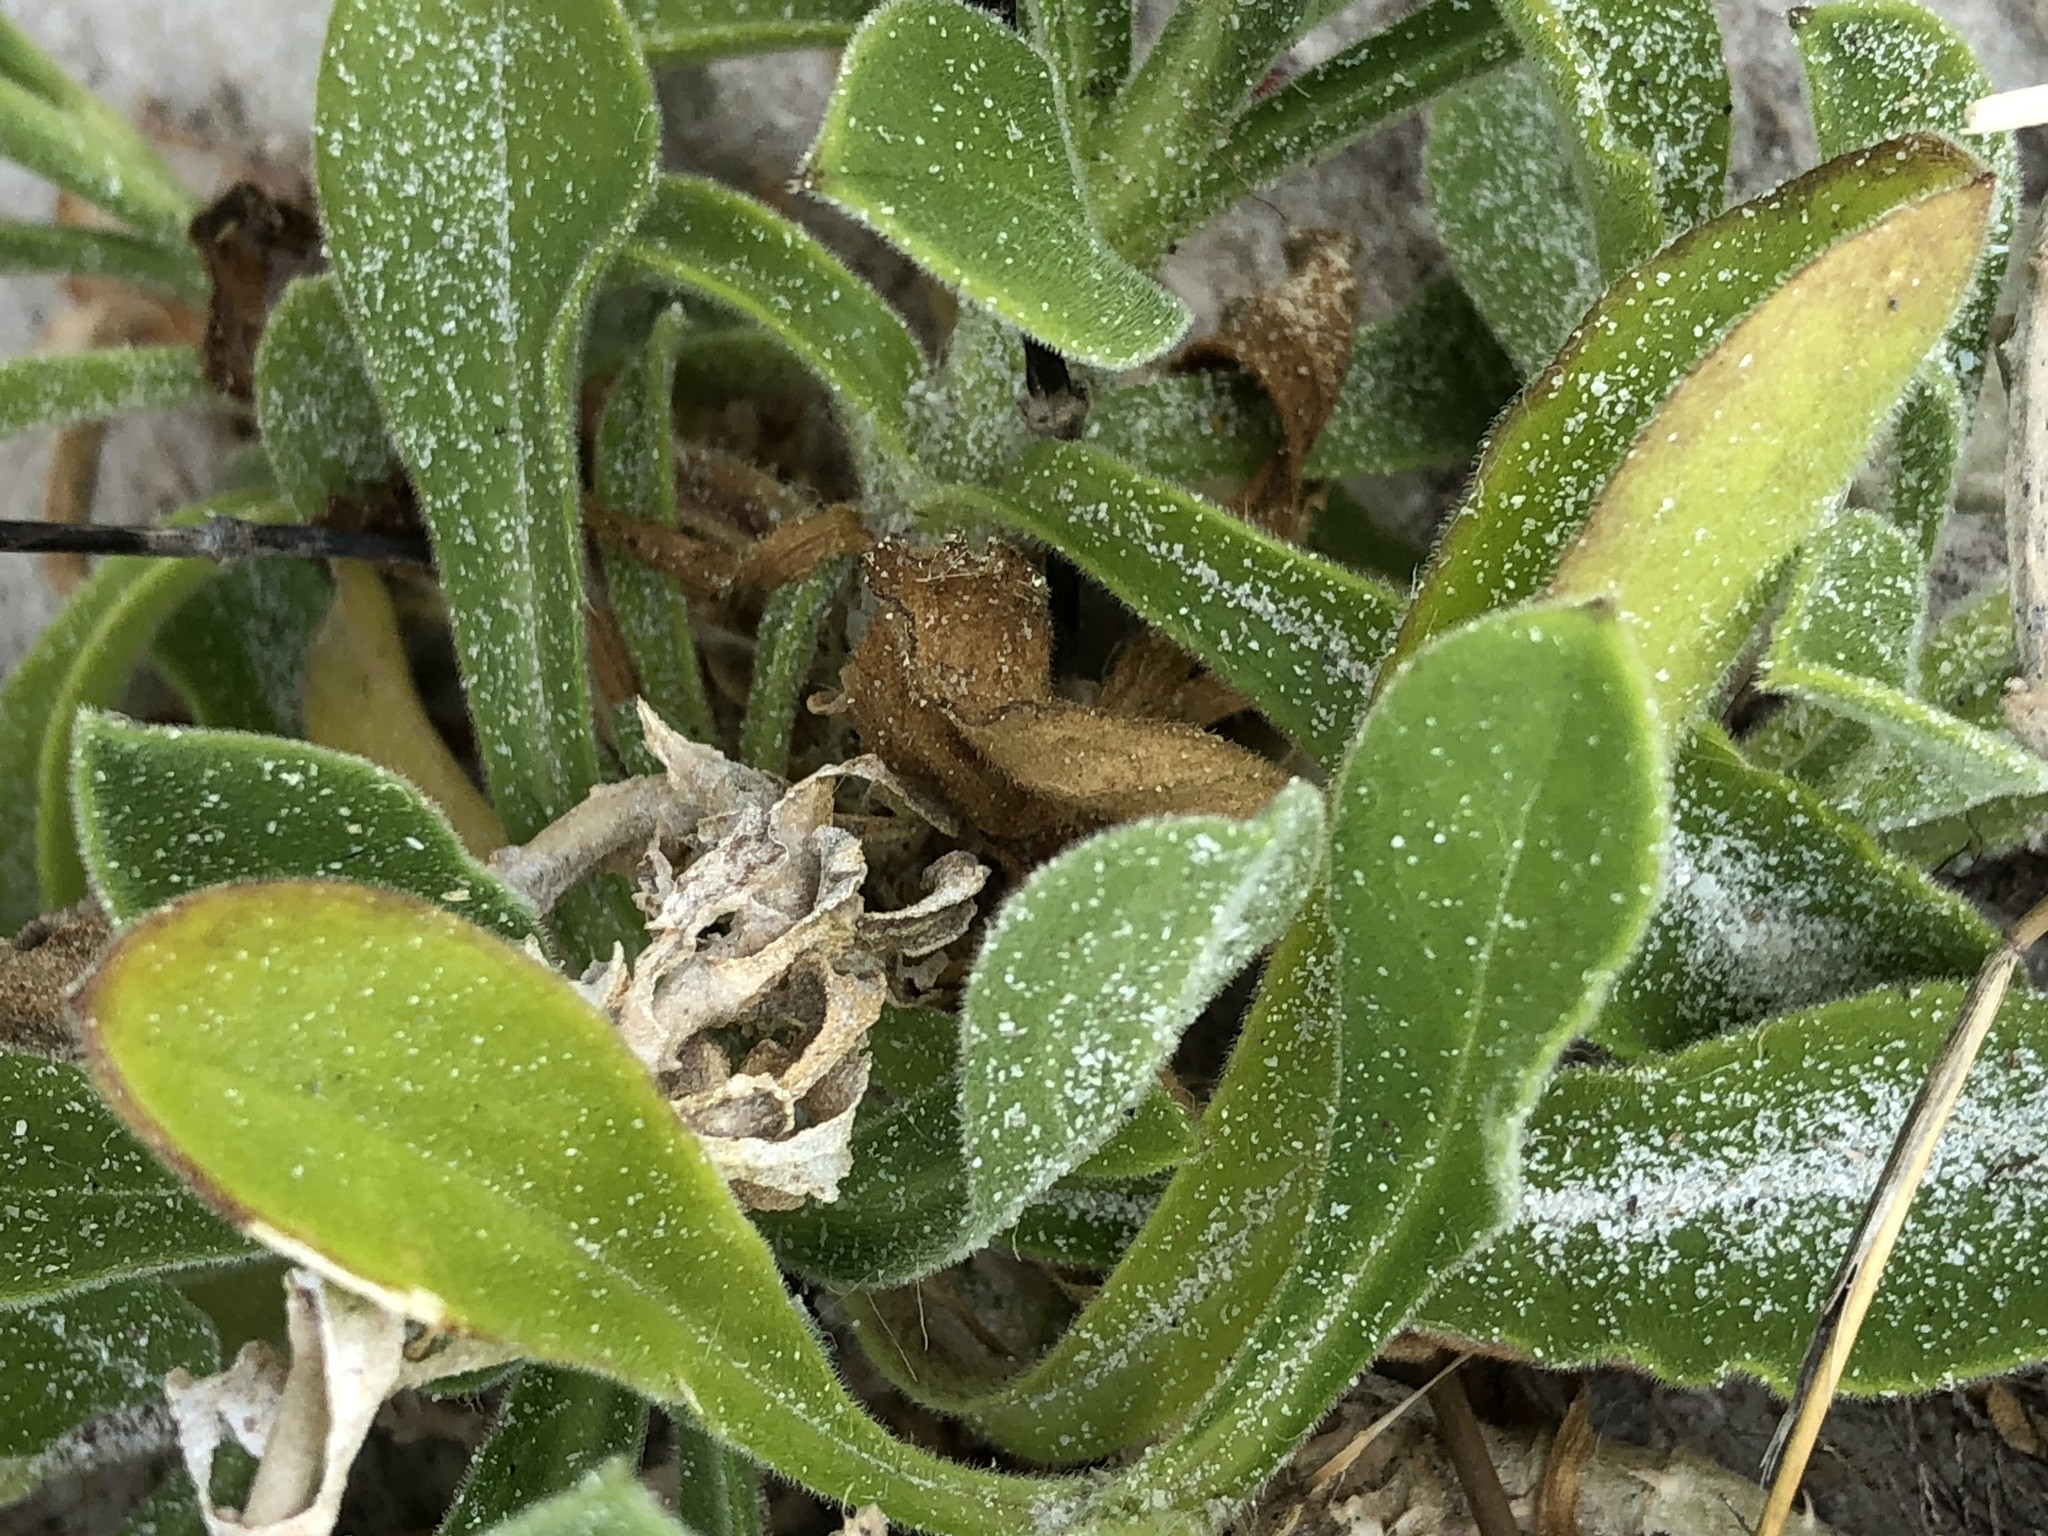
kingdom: Plantae
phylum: Tracheophyta
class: Magnoliopsida
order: Caryophyllales
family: Caryophyllaceae
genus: Silene
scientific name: Silene undulata
